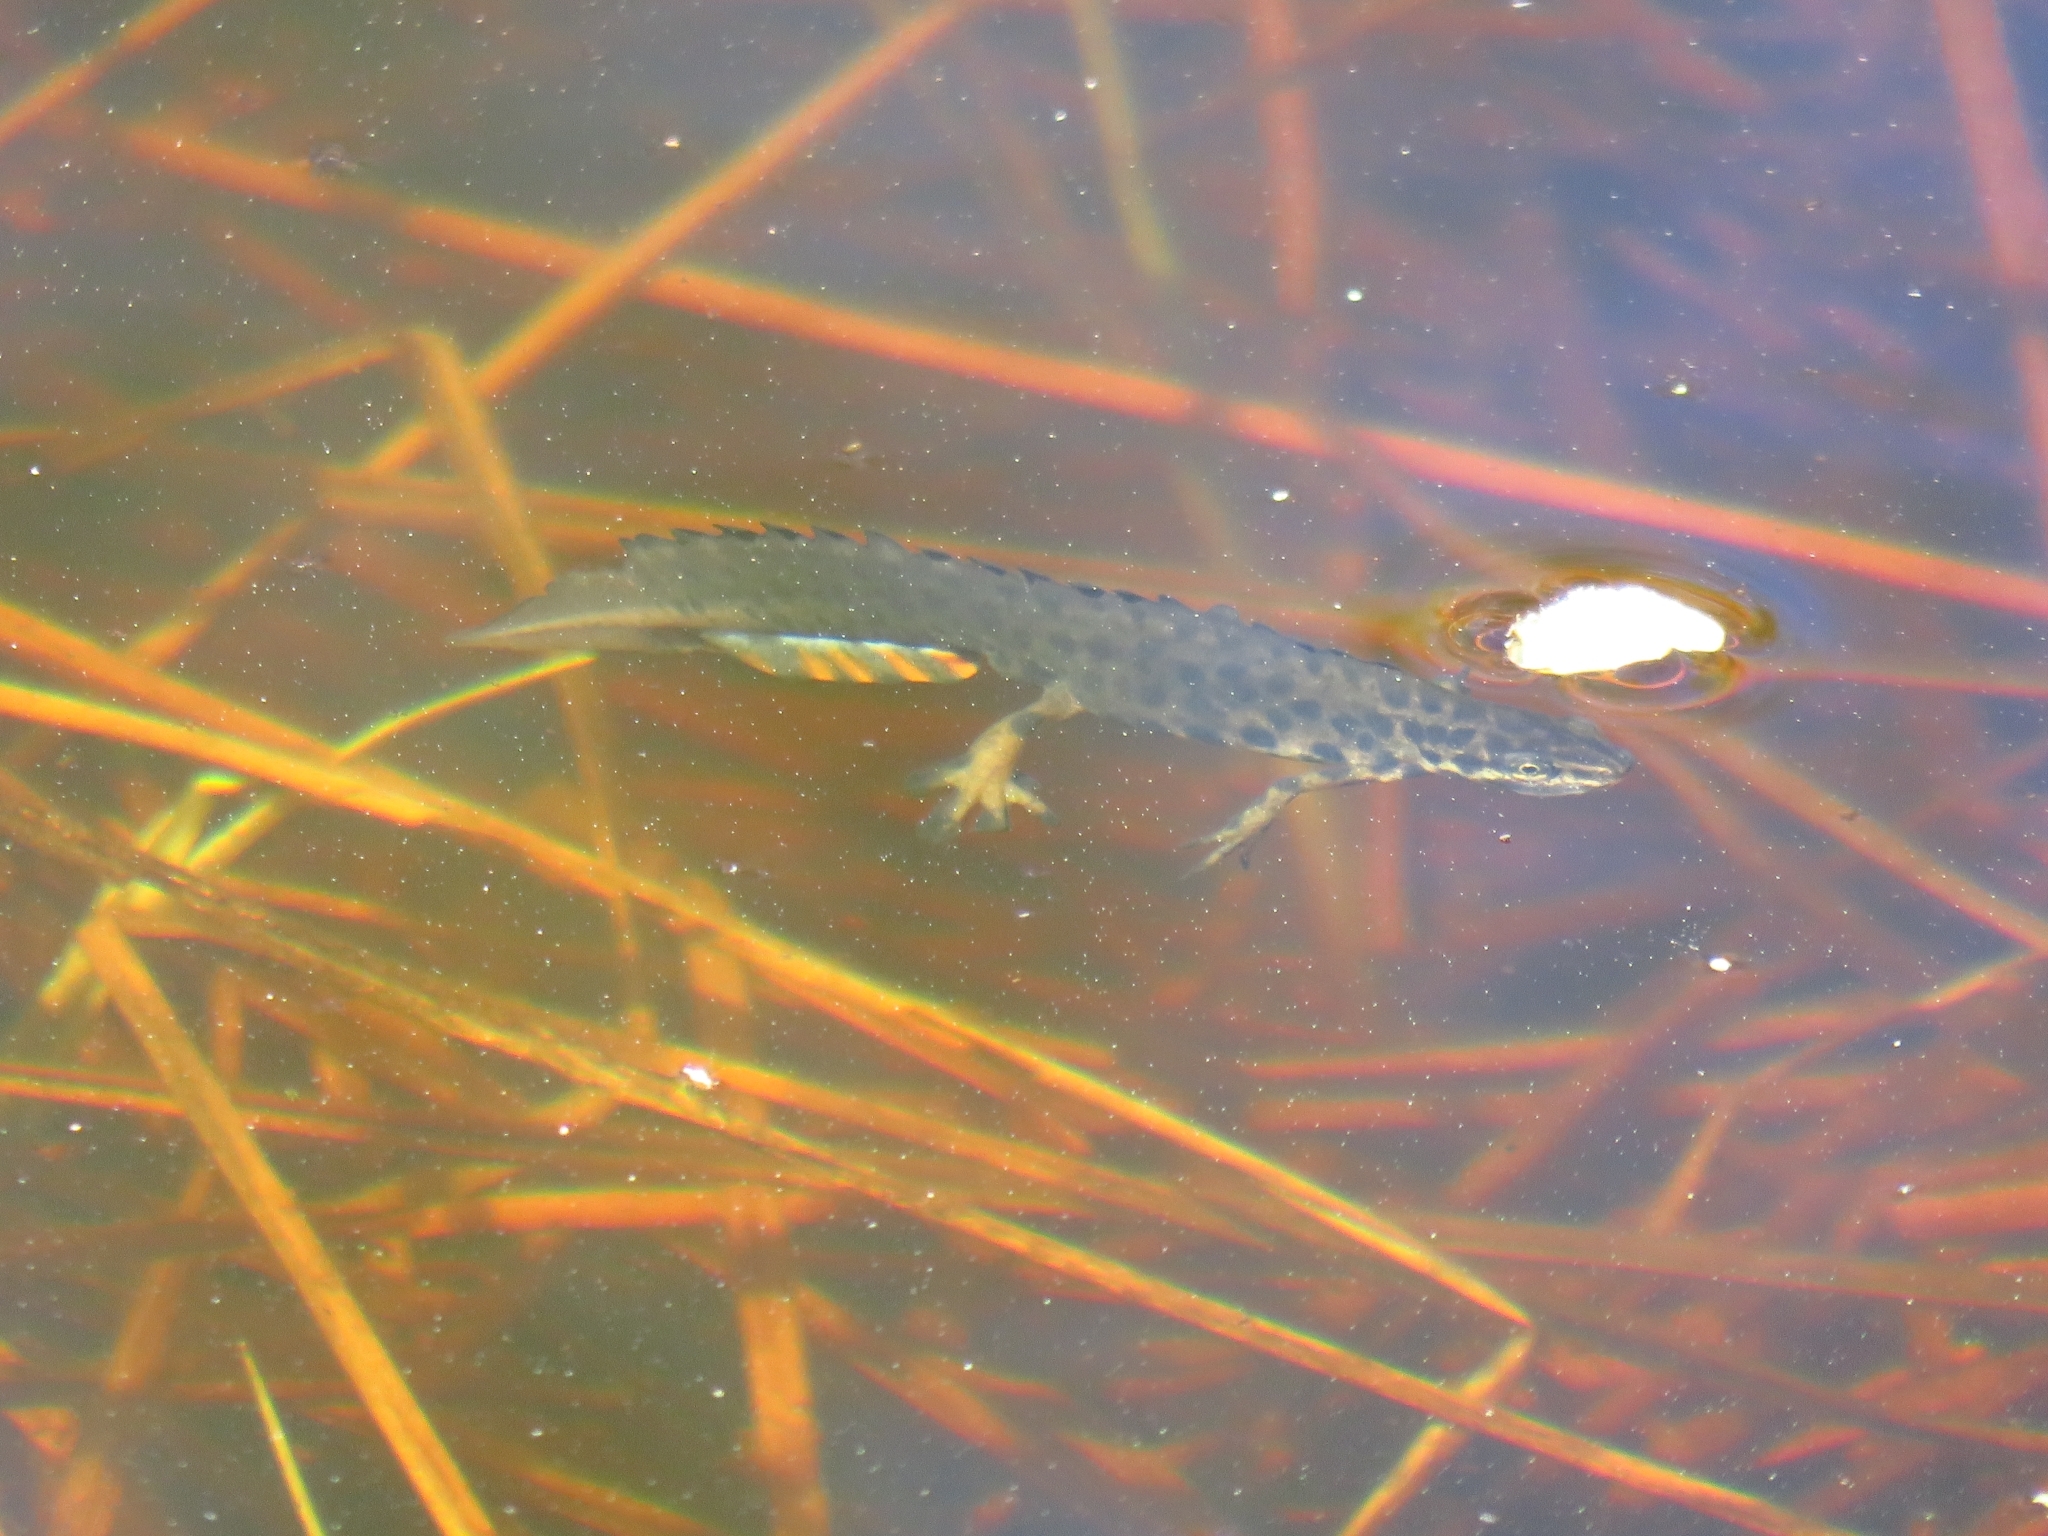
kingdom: Animalia
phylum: Chordata
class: Amphibia
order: Caudata
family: Salamandridae
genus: Lissotriton
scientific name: Lissotriton vulgaris
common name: Smooth newt
